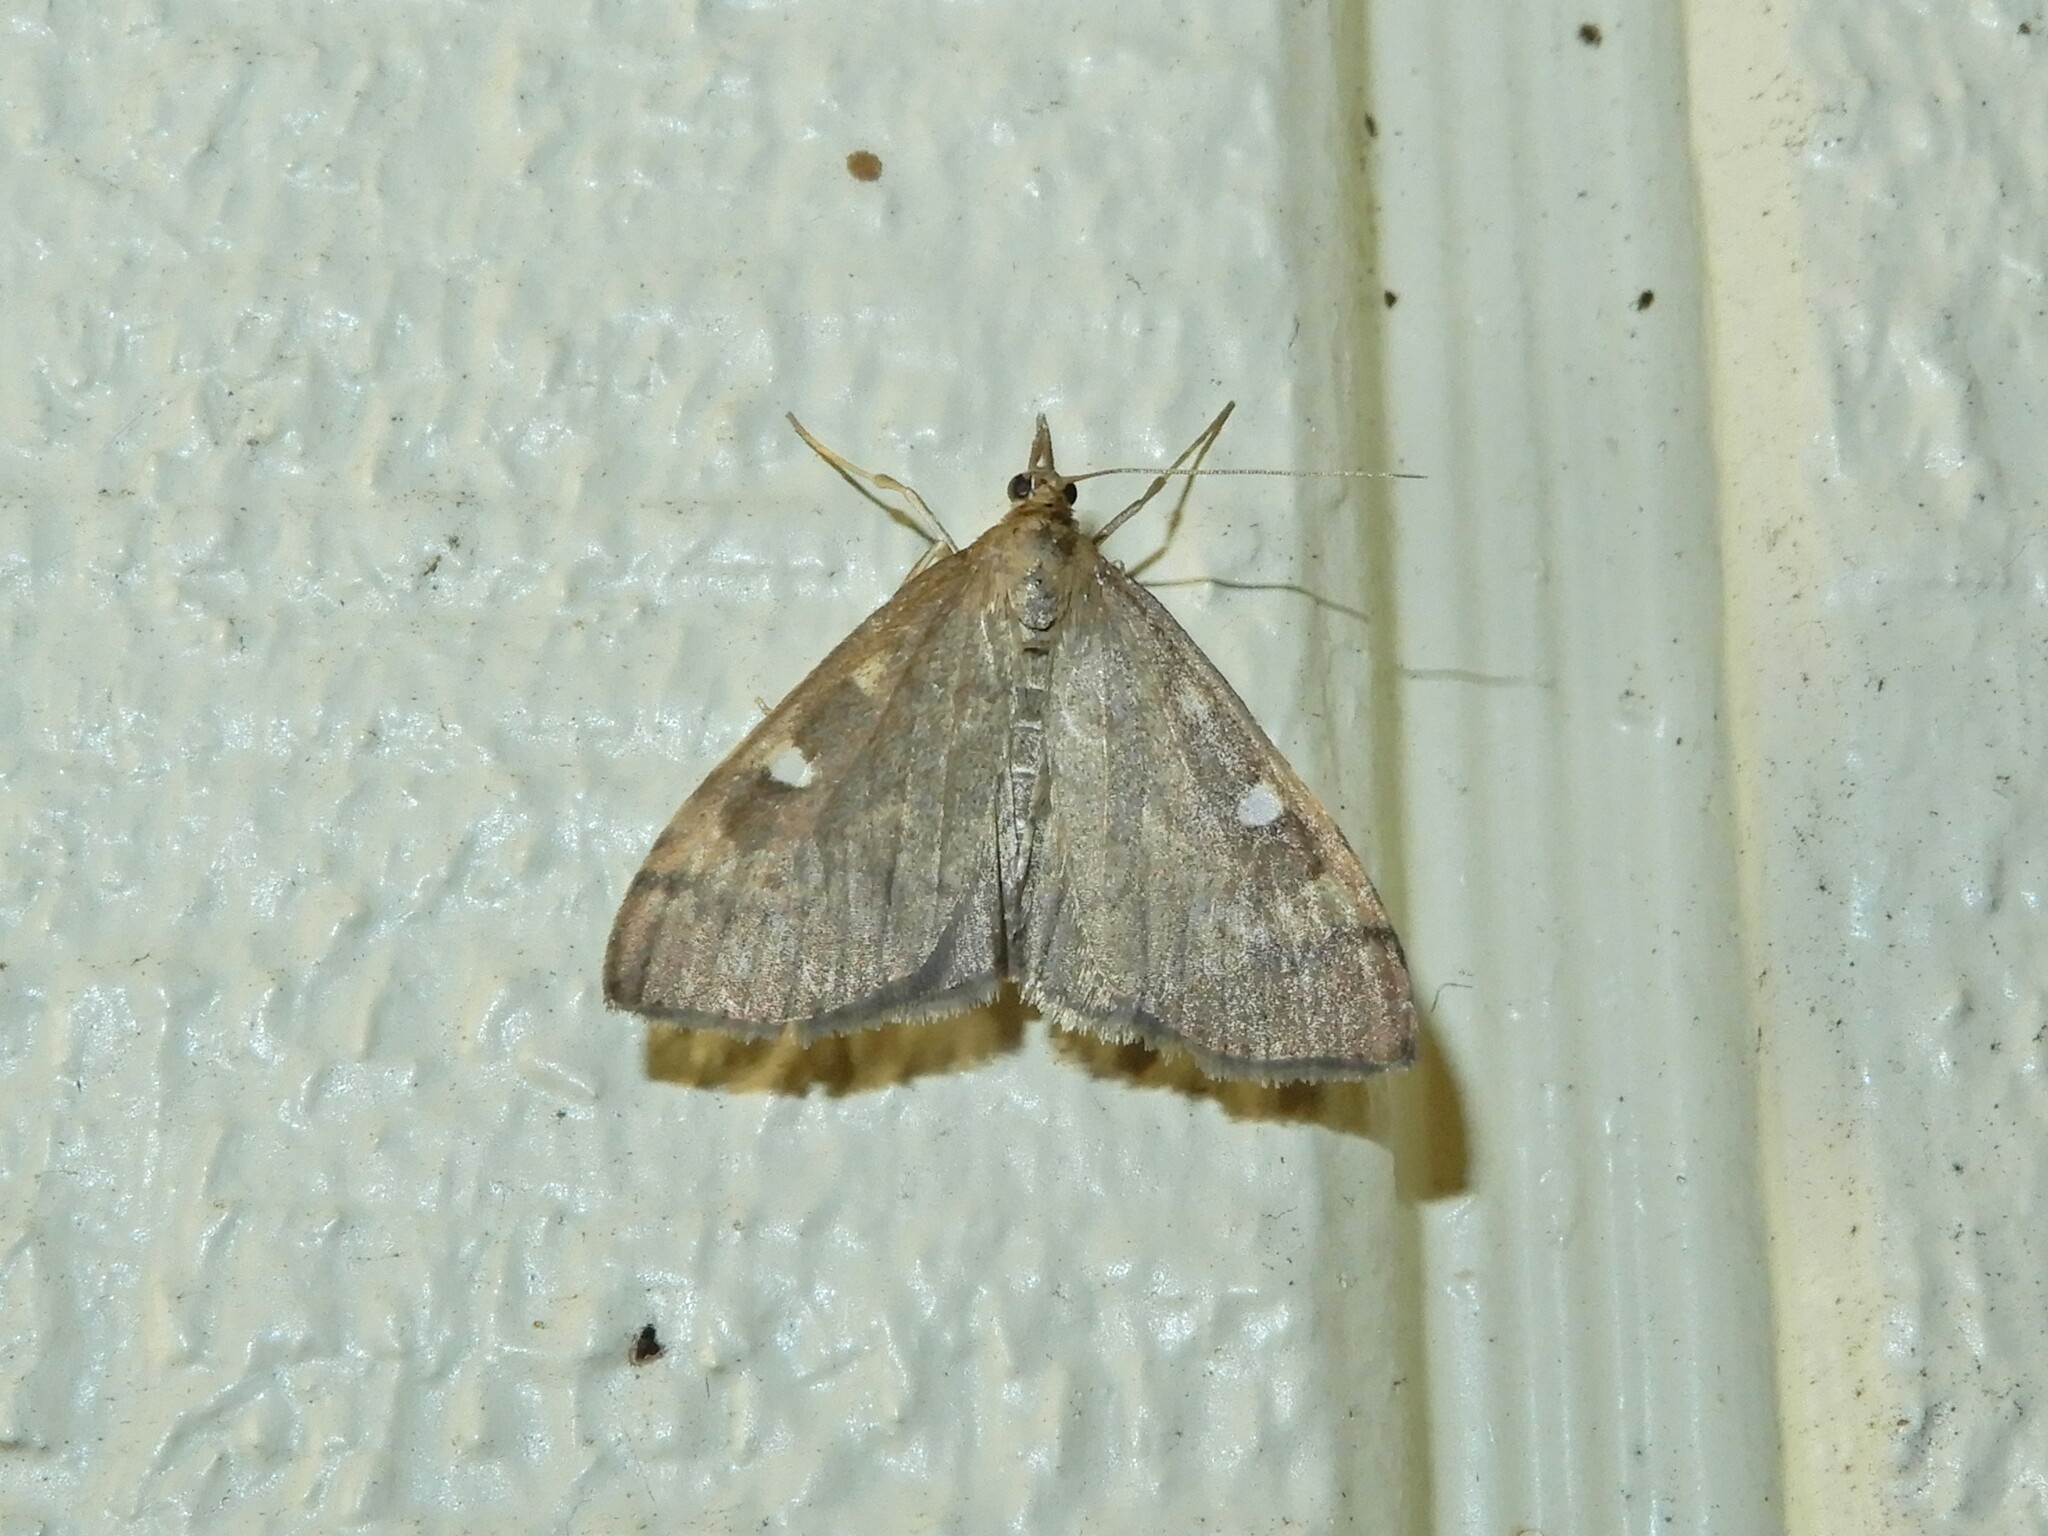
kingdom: Animalia
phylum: Arthropoda
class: Insecta
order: Lepidoptera
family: Crambidae
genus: Udea
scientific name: Udea Mnesictena flavidalis
